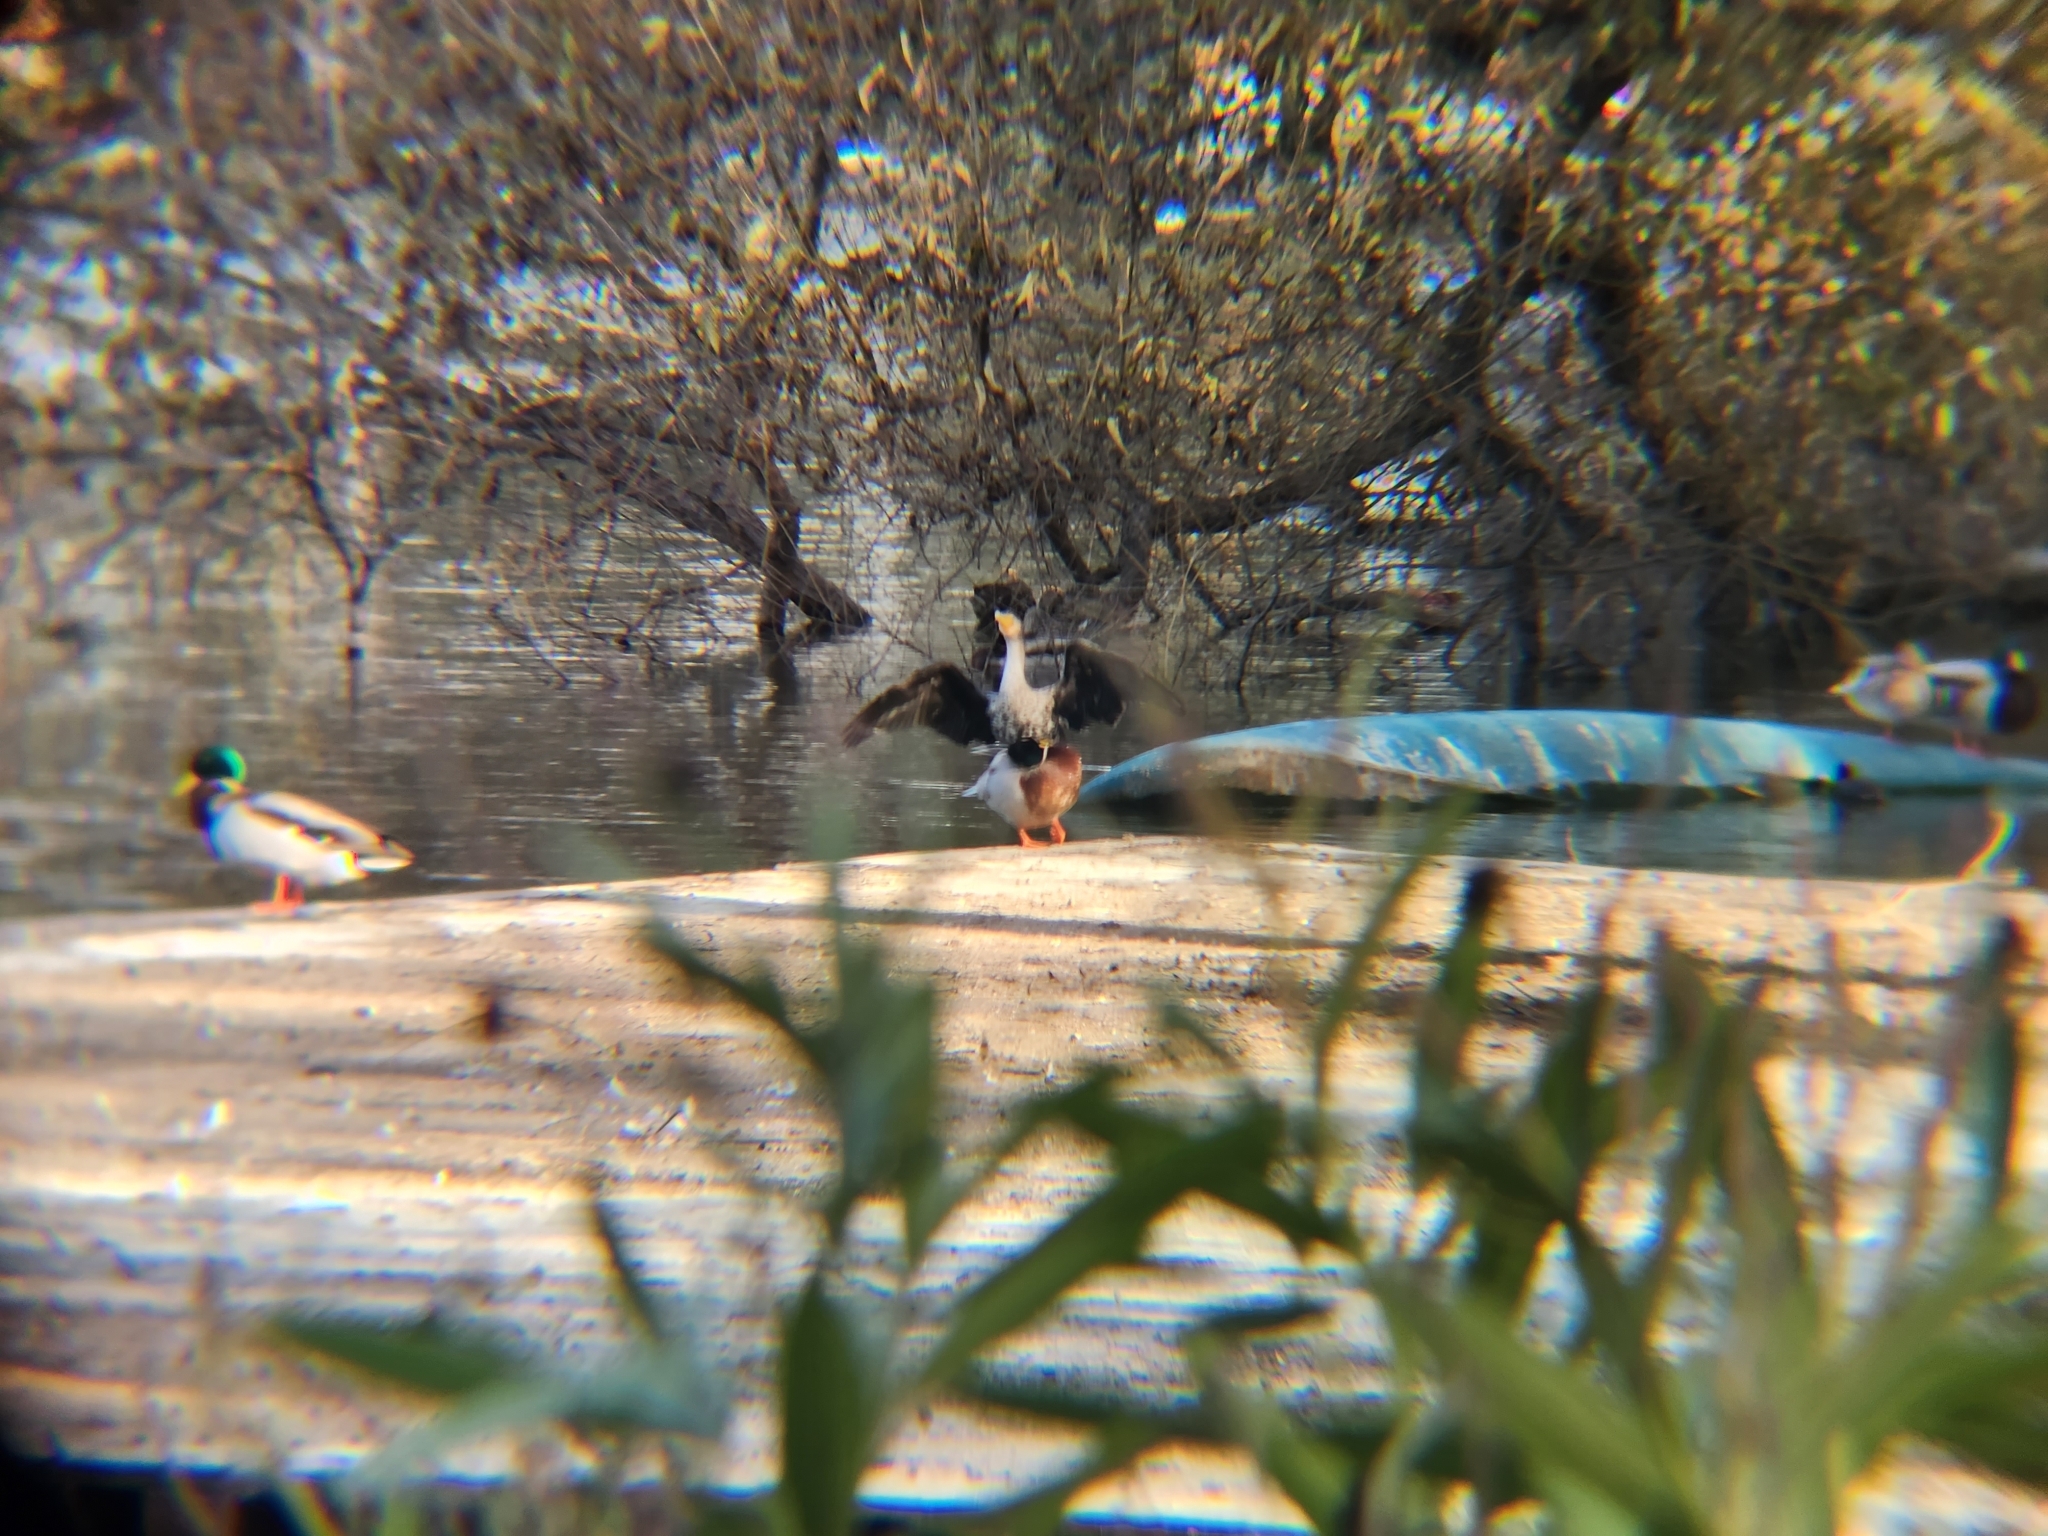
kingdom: Animalia
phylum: Chordata
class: Aves
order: Suliformes
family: Phalacrocoracidae
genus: Phalacrocorax
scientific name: Phalacrocorax auritus
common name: Double-crested cormorant
